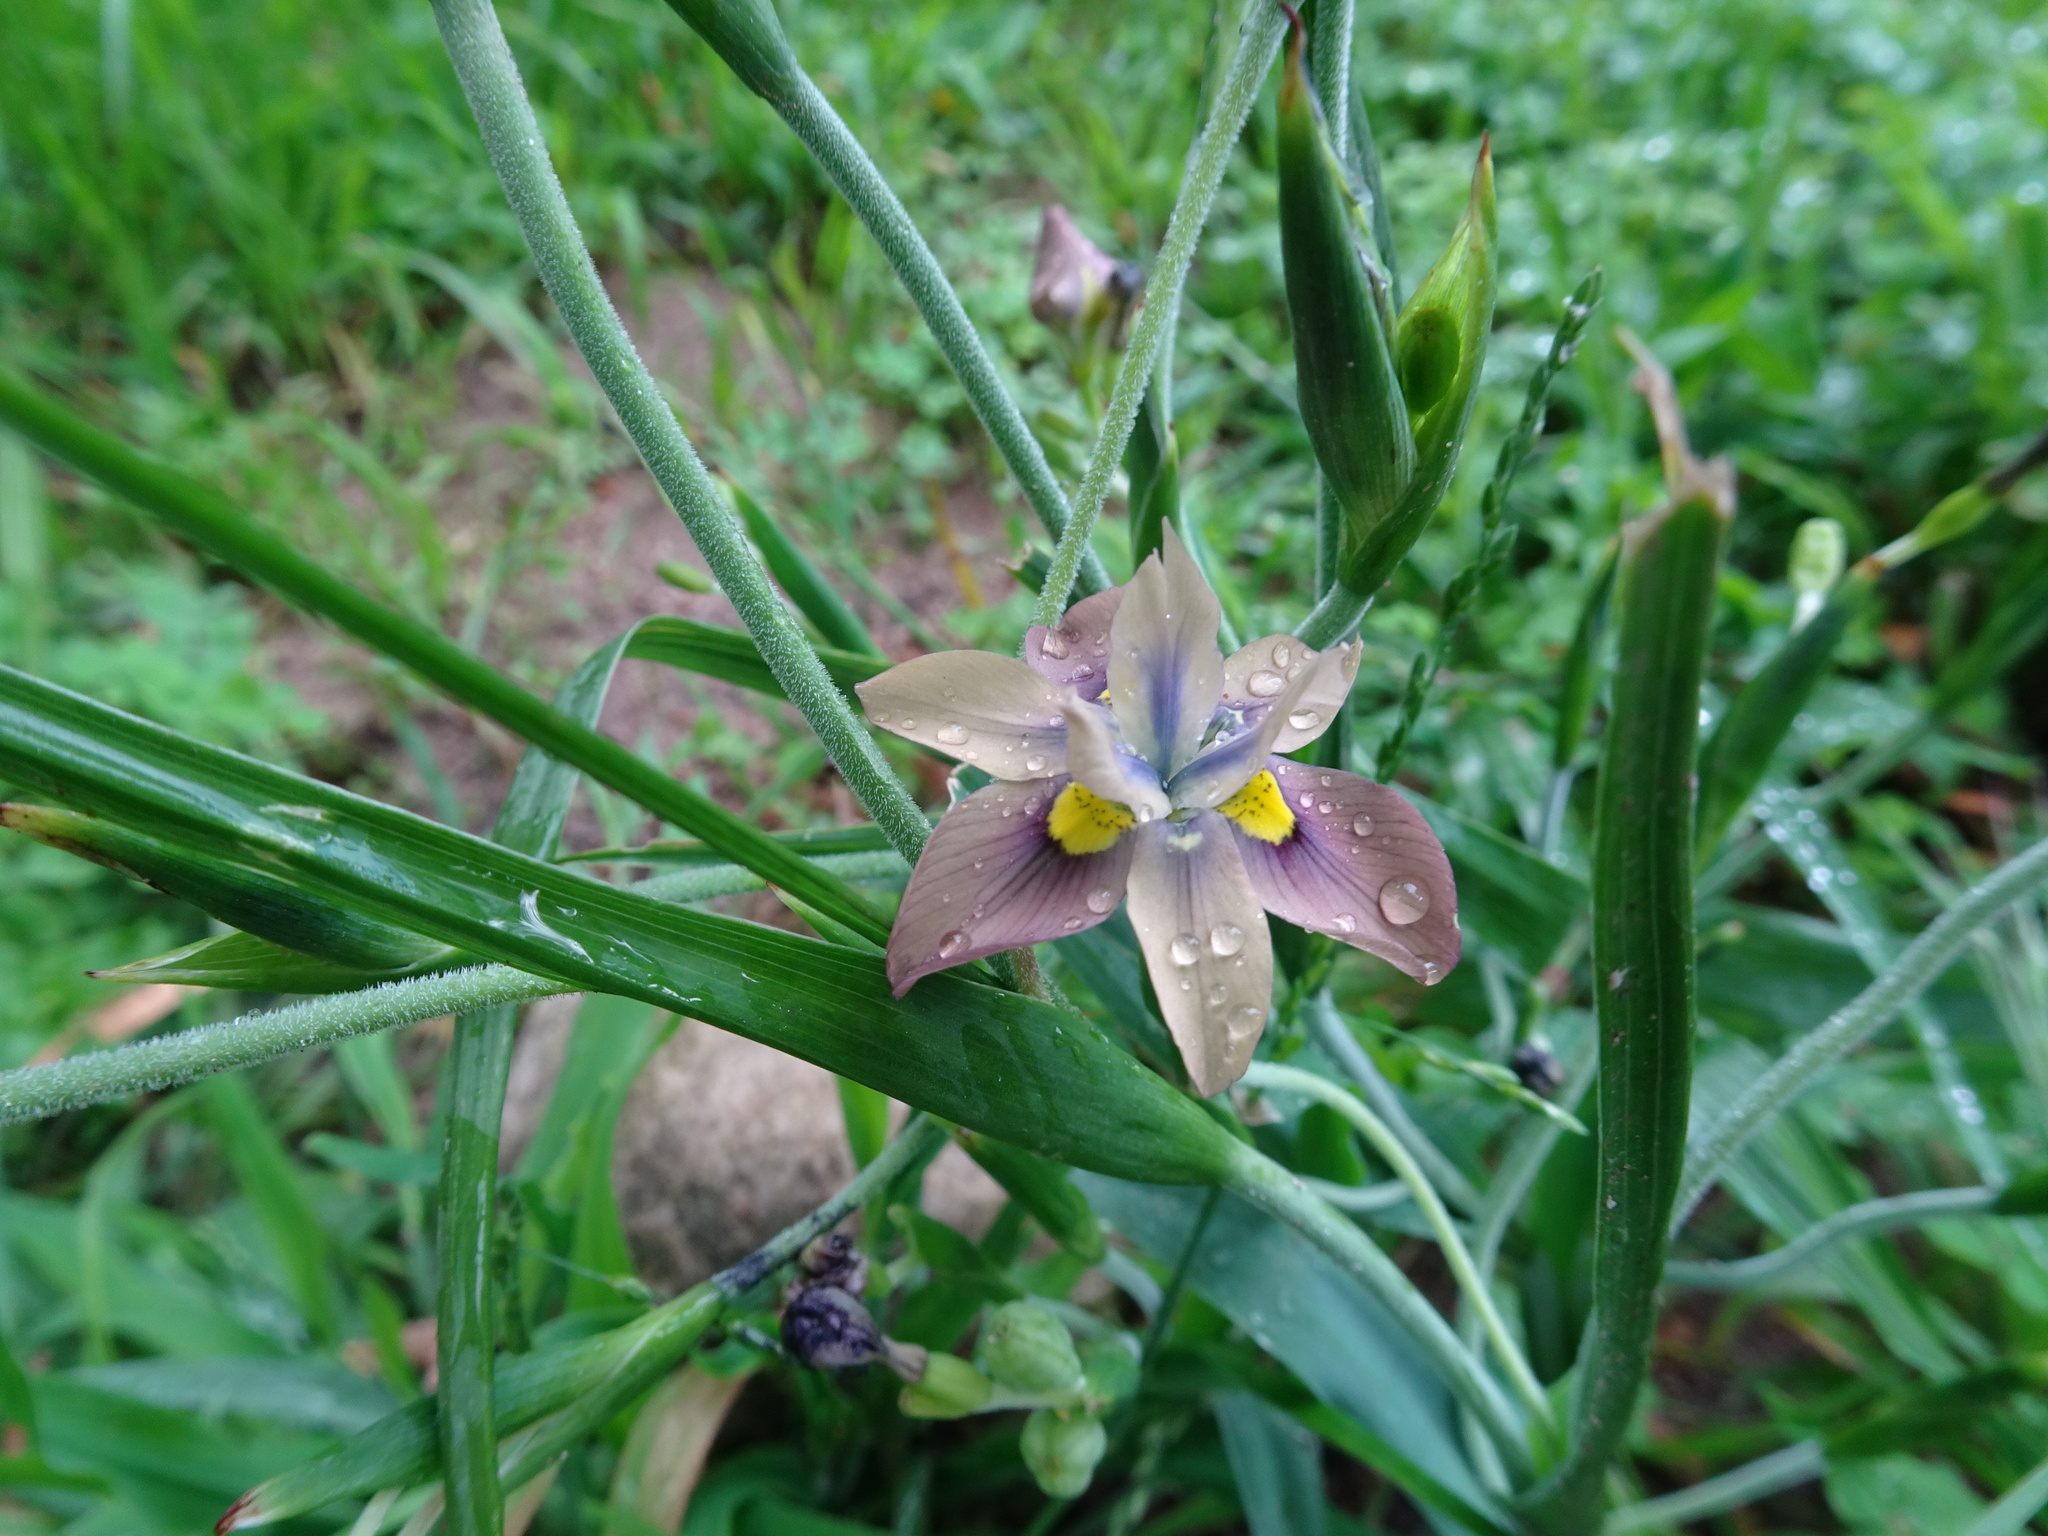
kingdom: Plantae
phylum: Tracheophyta
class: Liliopsida
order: Asparagales
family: Iridaceae
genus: Moraea
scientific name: Moraea vegeta
